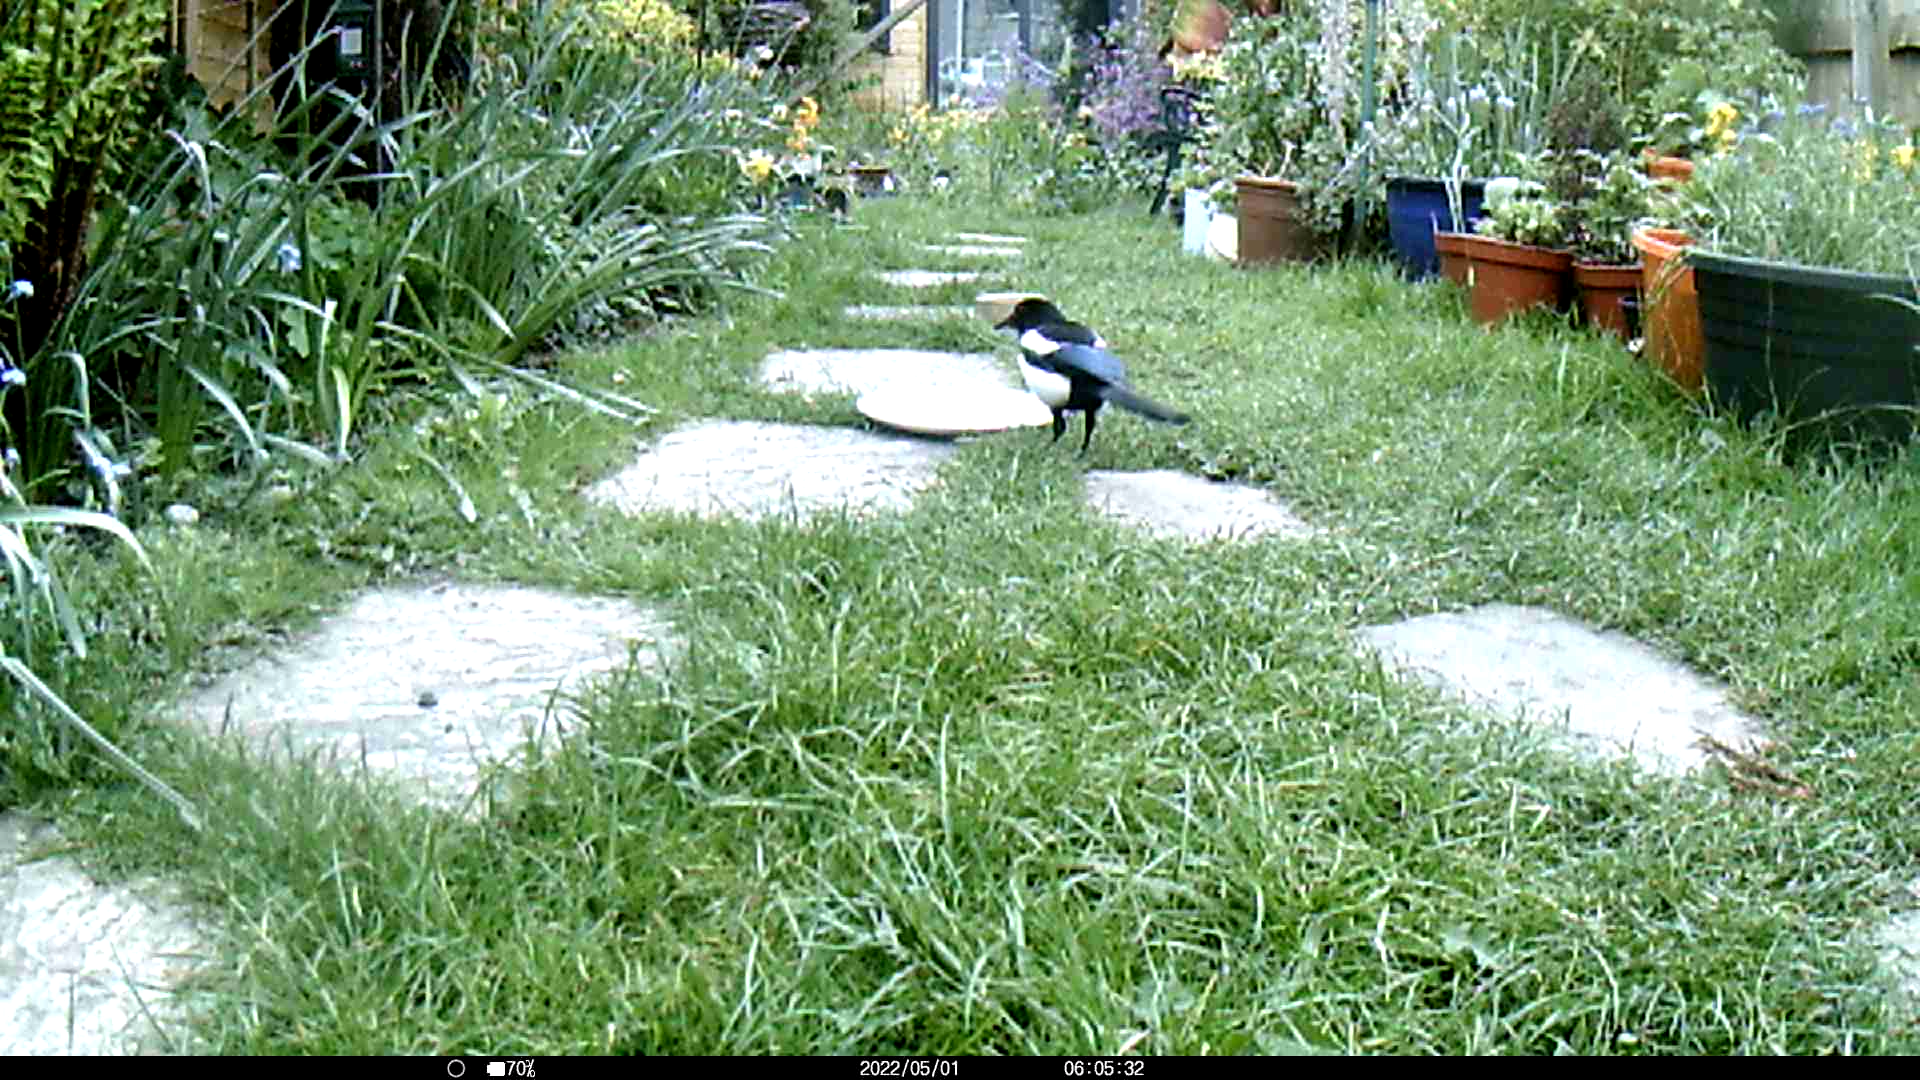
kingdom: Animalia
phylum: Chordata
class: Aves
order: Passeriformes
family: Corvidae
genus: Pica
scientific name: Pica pica
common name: Eurasian magpie
